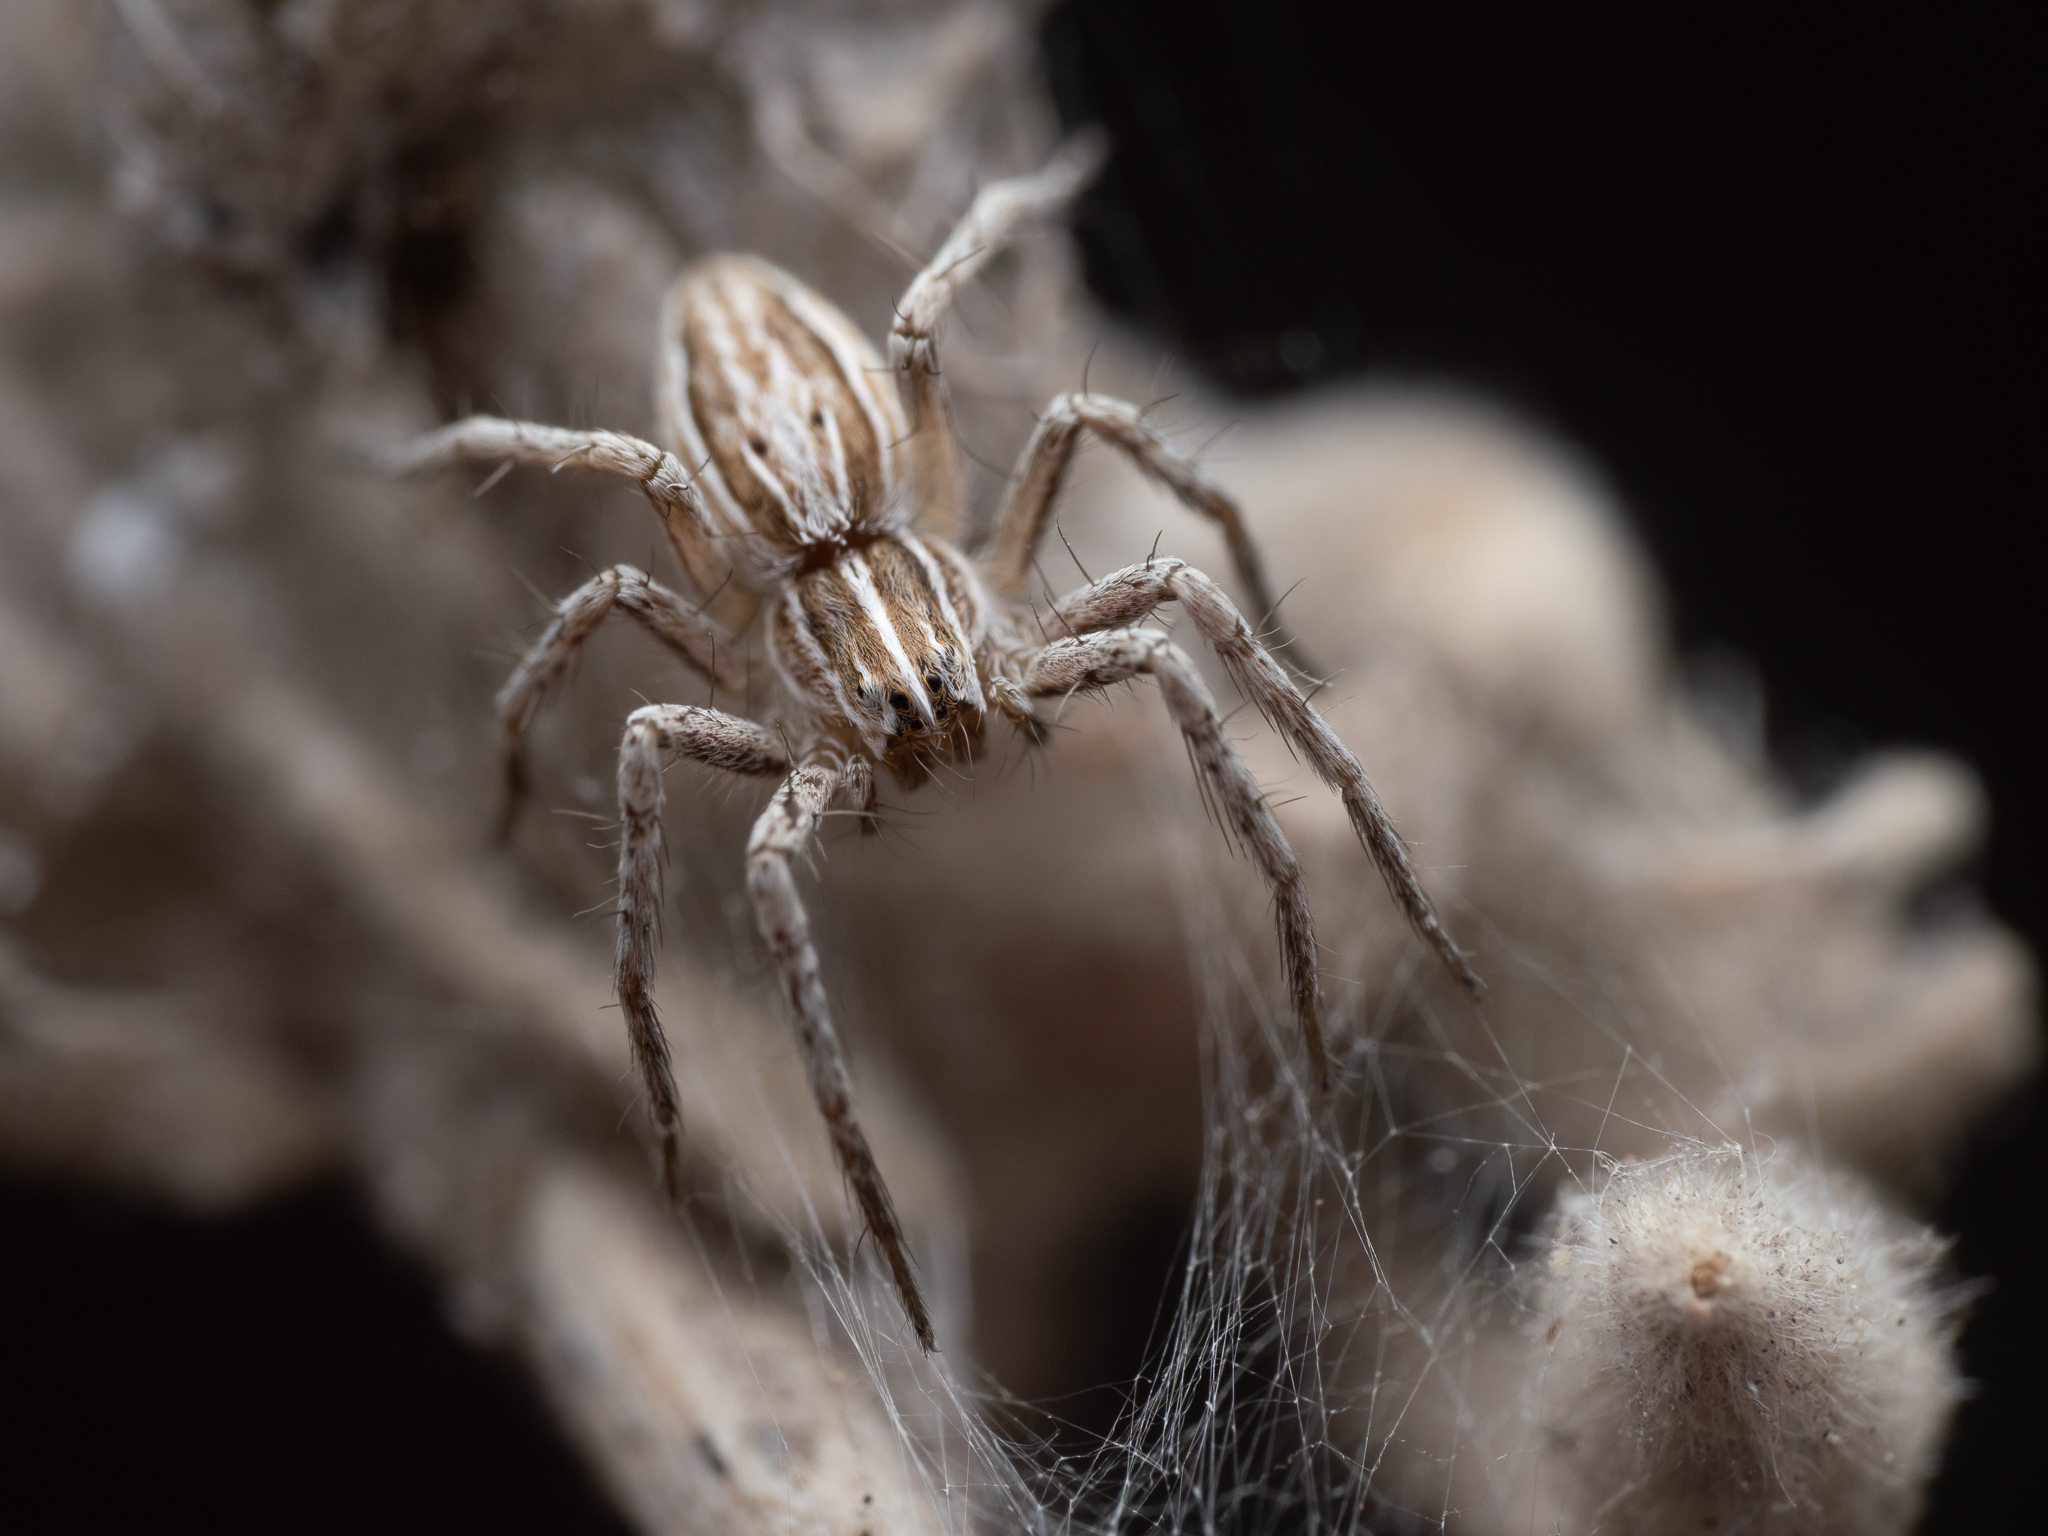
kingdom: Animalia
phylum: Arthropoda
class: Arachnida
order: Araneae
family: Pisauridae
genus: Pisaura
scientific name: Pisaura mirabilis
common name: Tent spider
